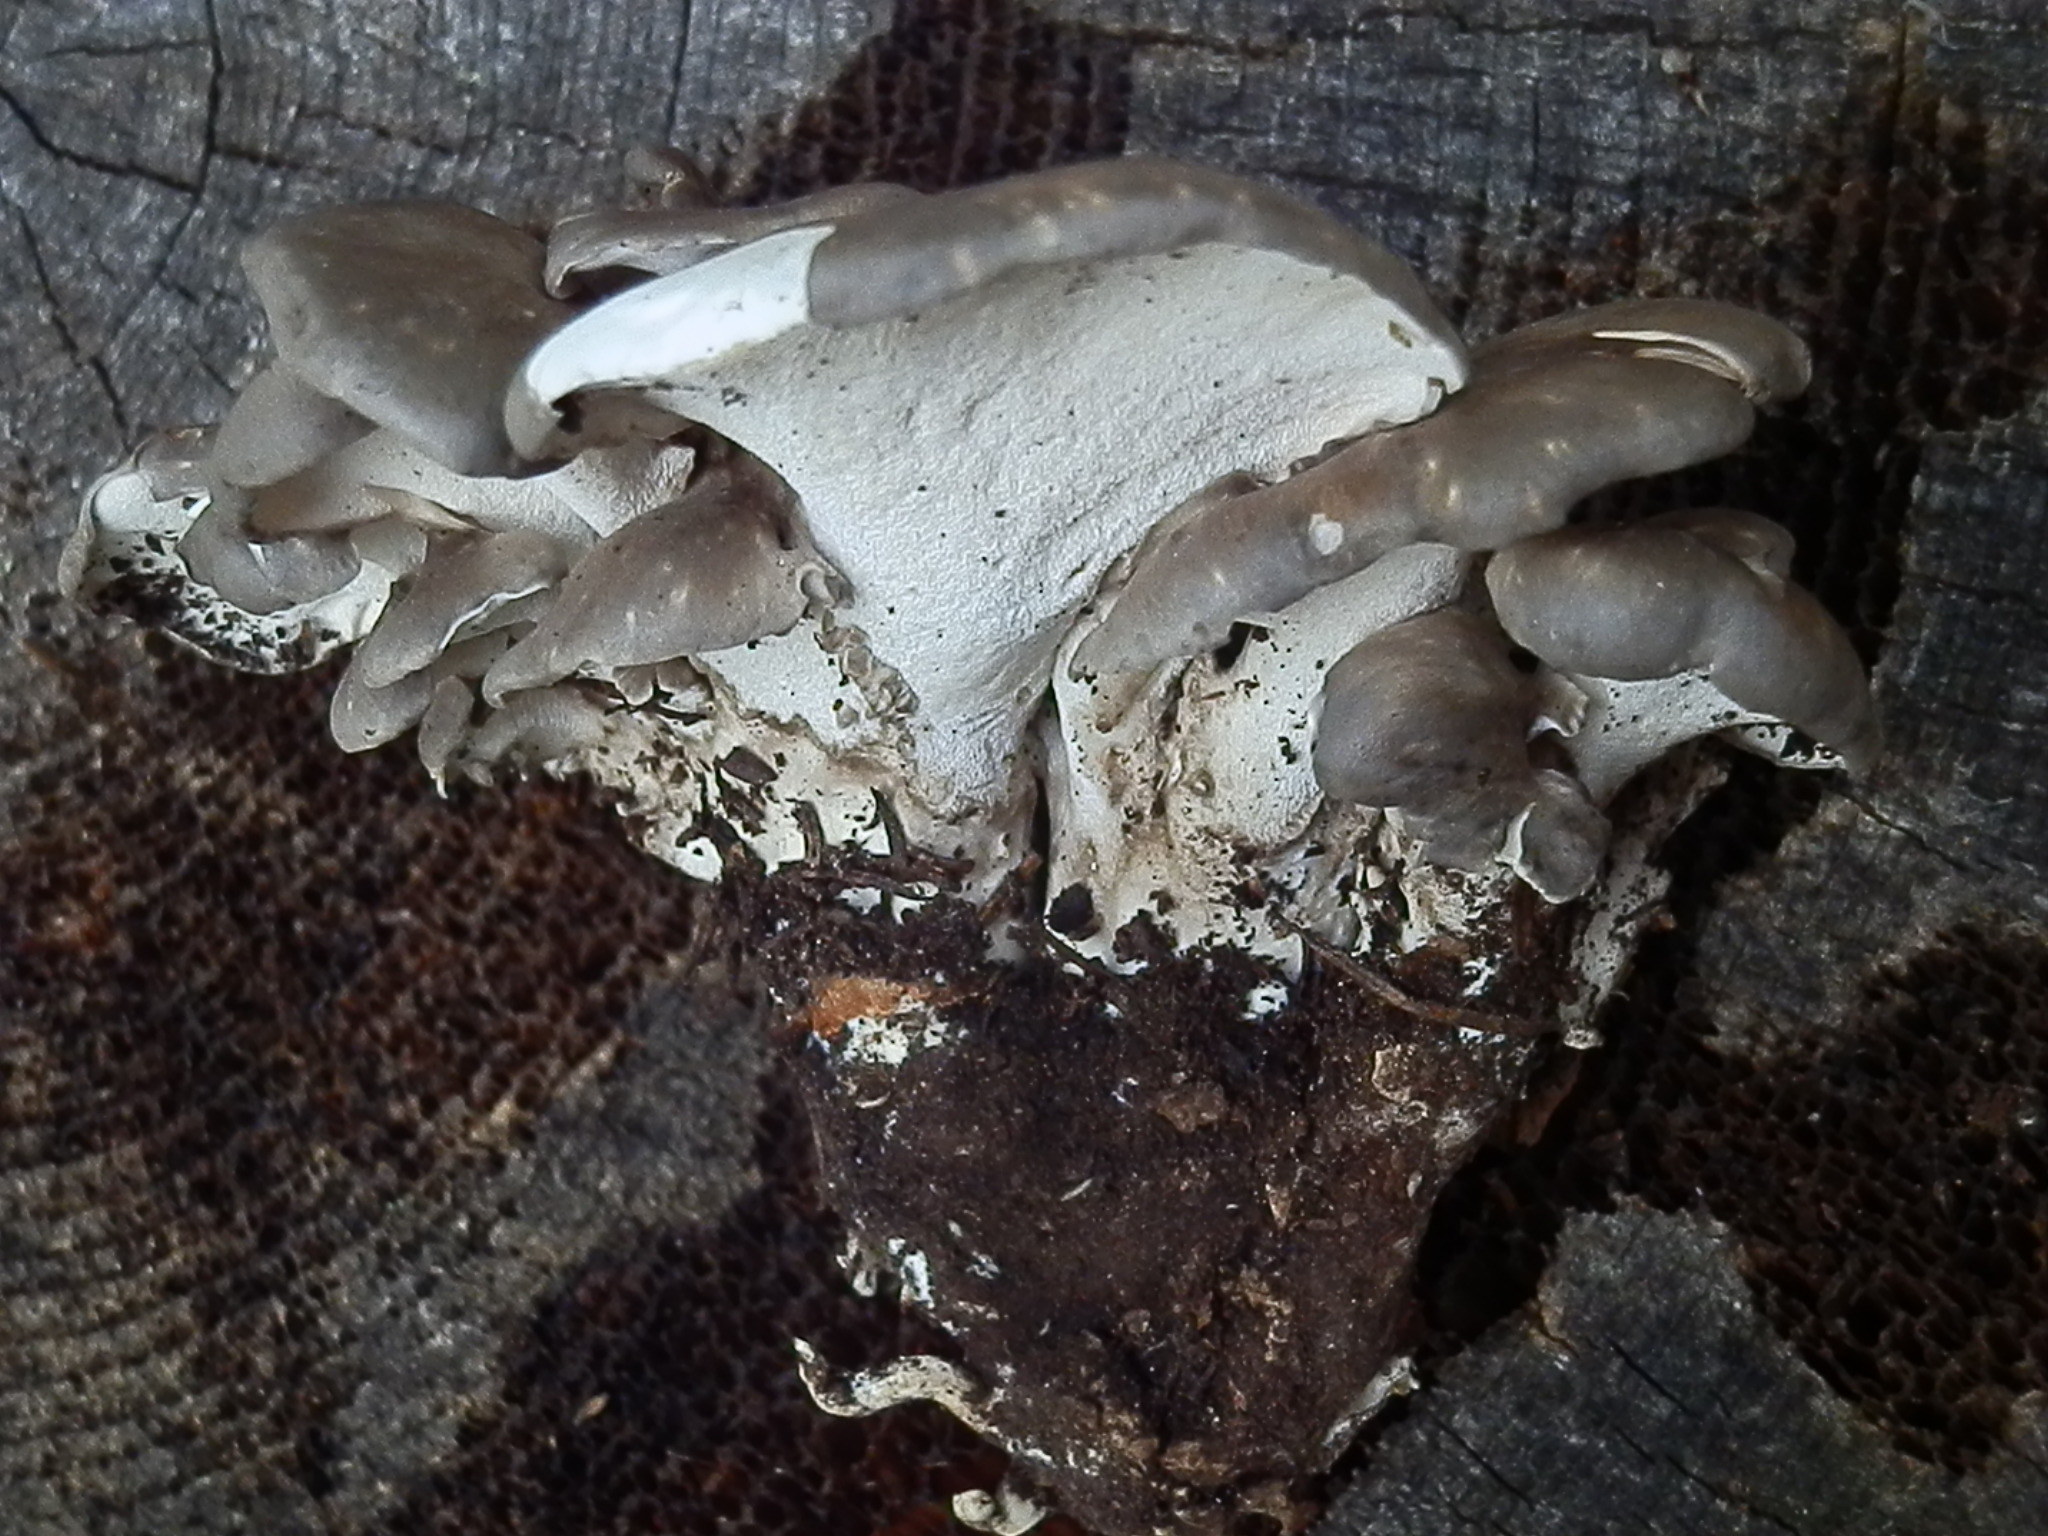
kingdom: Fungi
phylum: Basidiomycota
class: Agaricomycetes
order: Polyporales
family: Dacryobolaceae
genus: Osteina
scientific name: Osteina obducta
